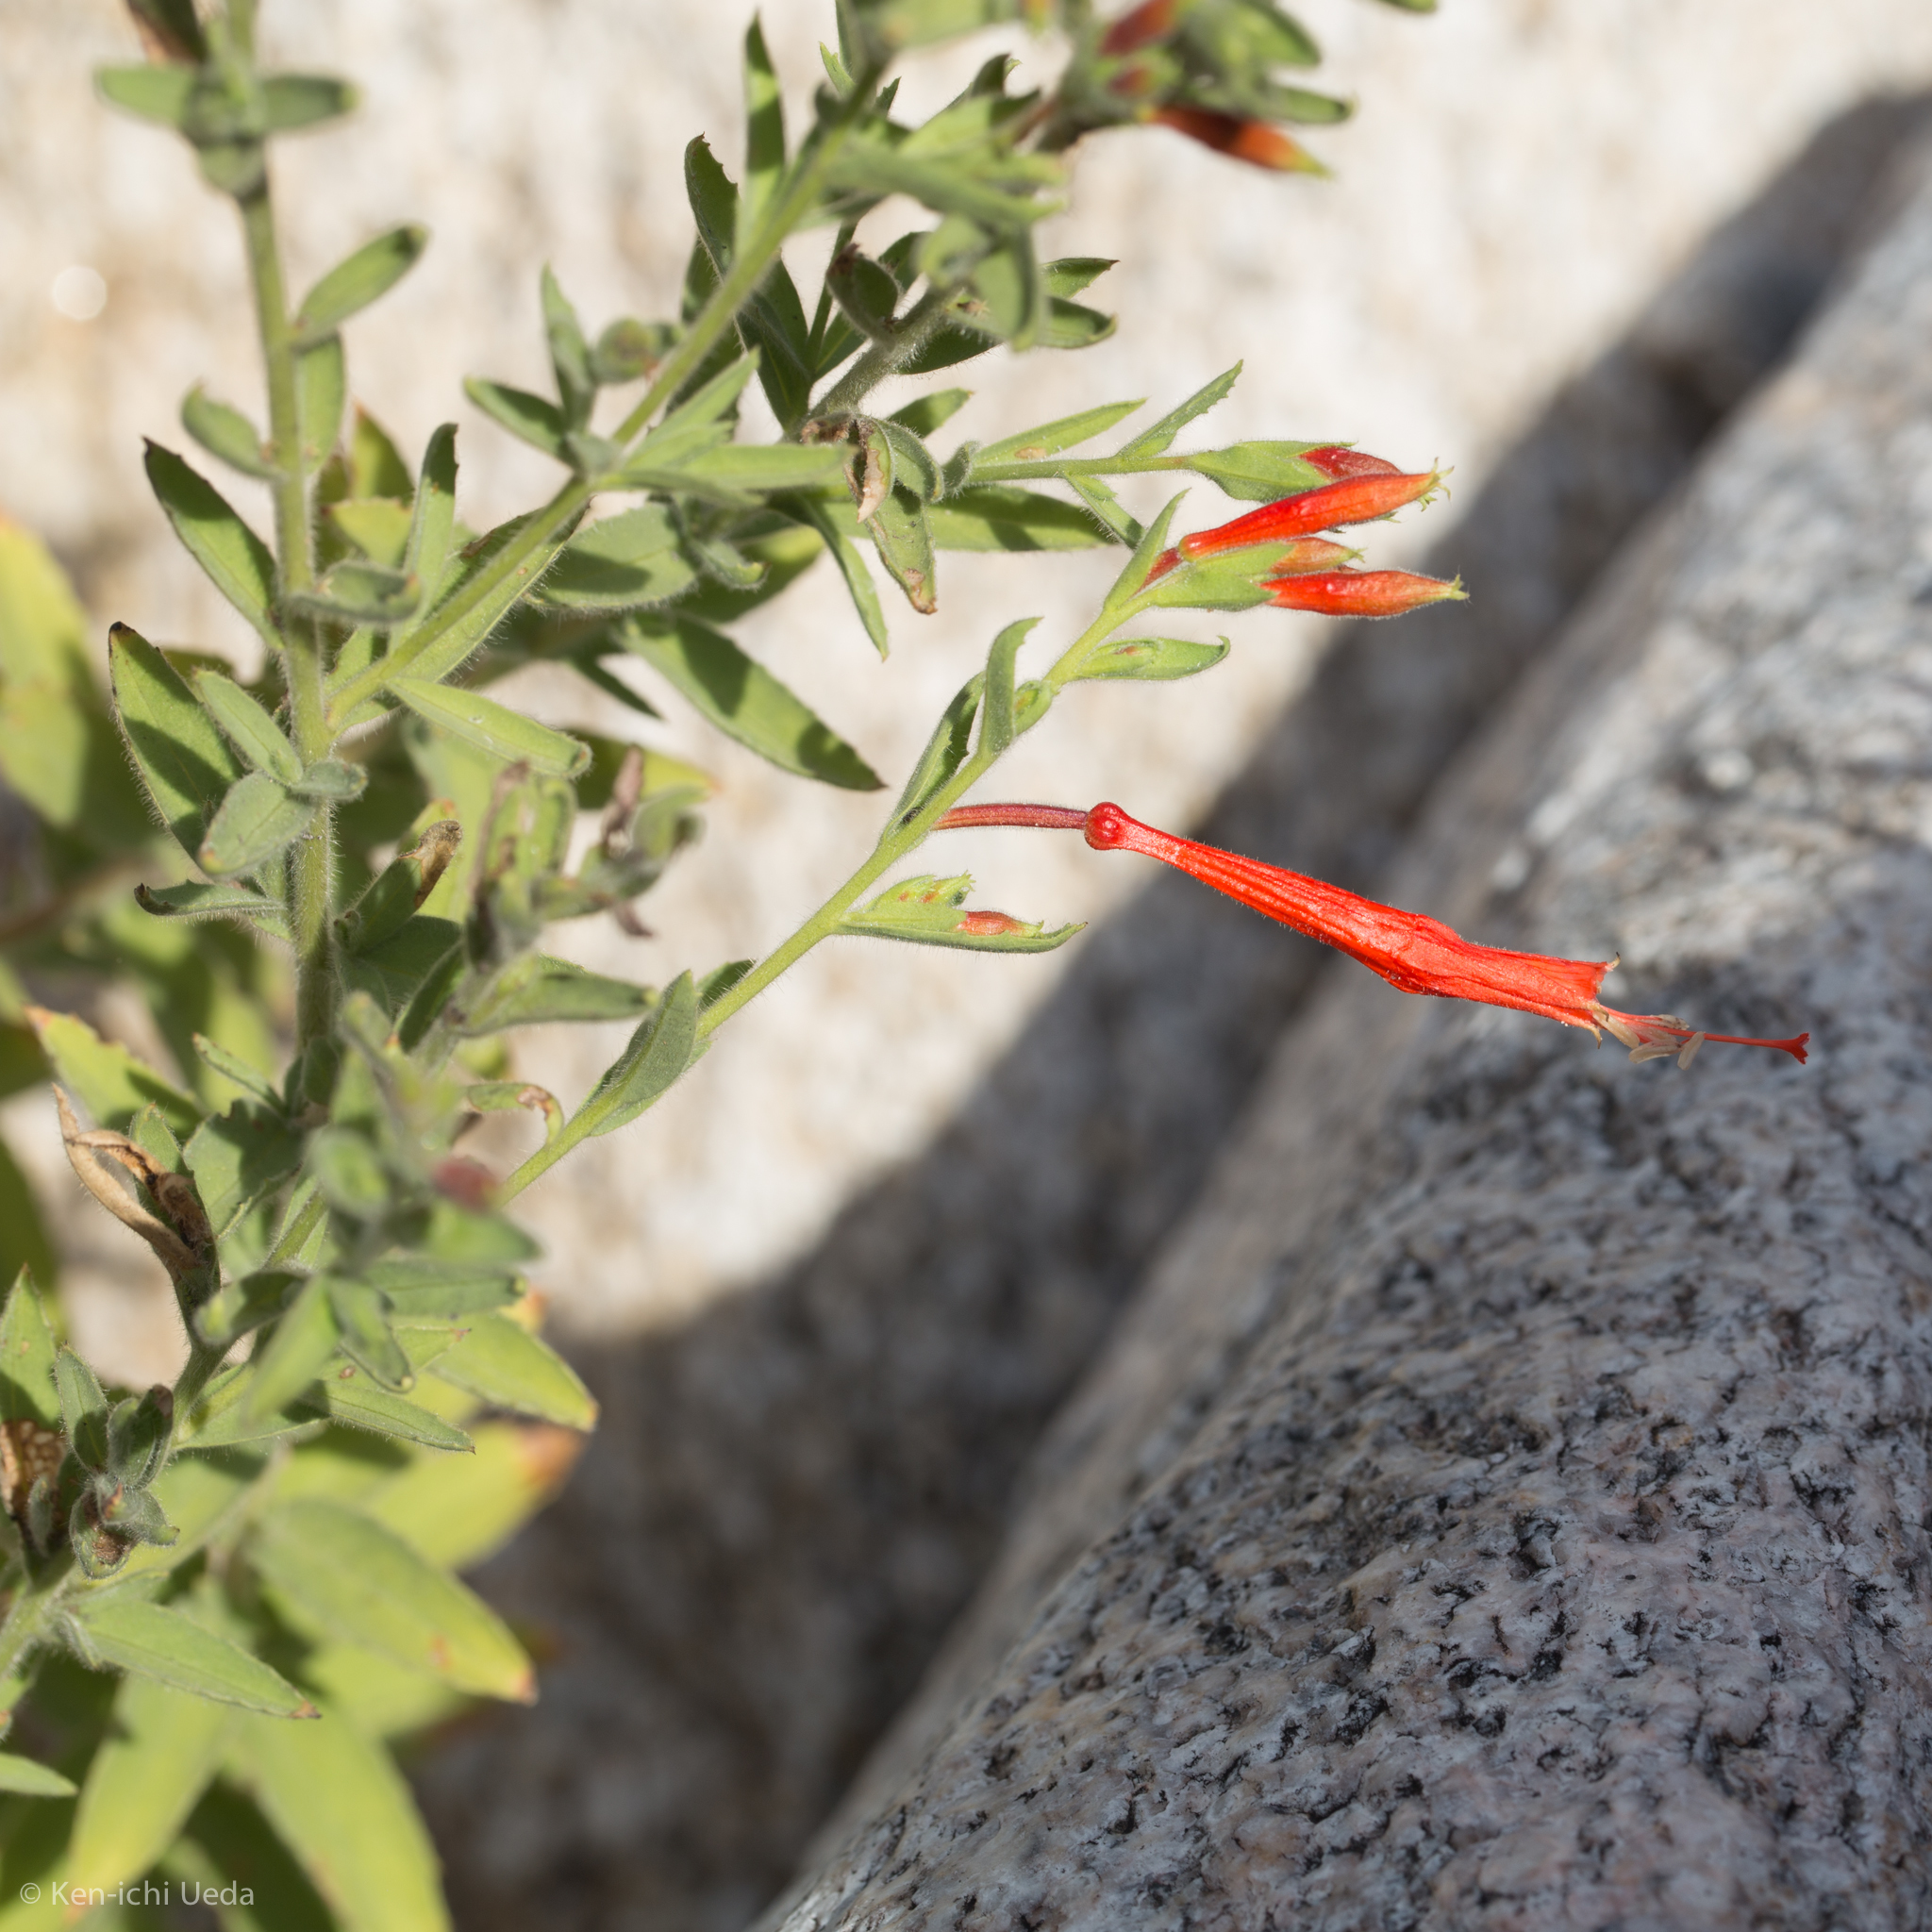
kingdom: Plantae
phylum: Tracheophyta
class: Magnoliopsida
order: Myrtales
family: Onagraceae
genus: Epilobium
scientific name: Epilobium canum
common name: California-fuchsia
